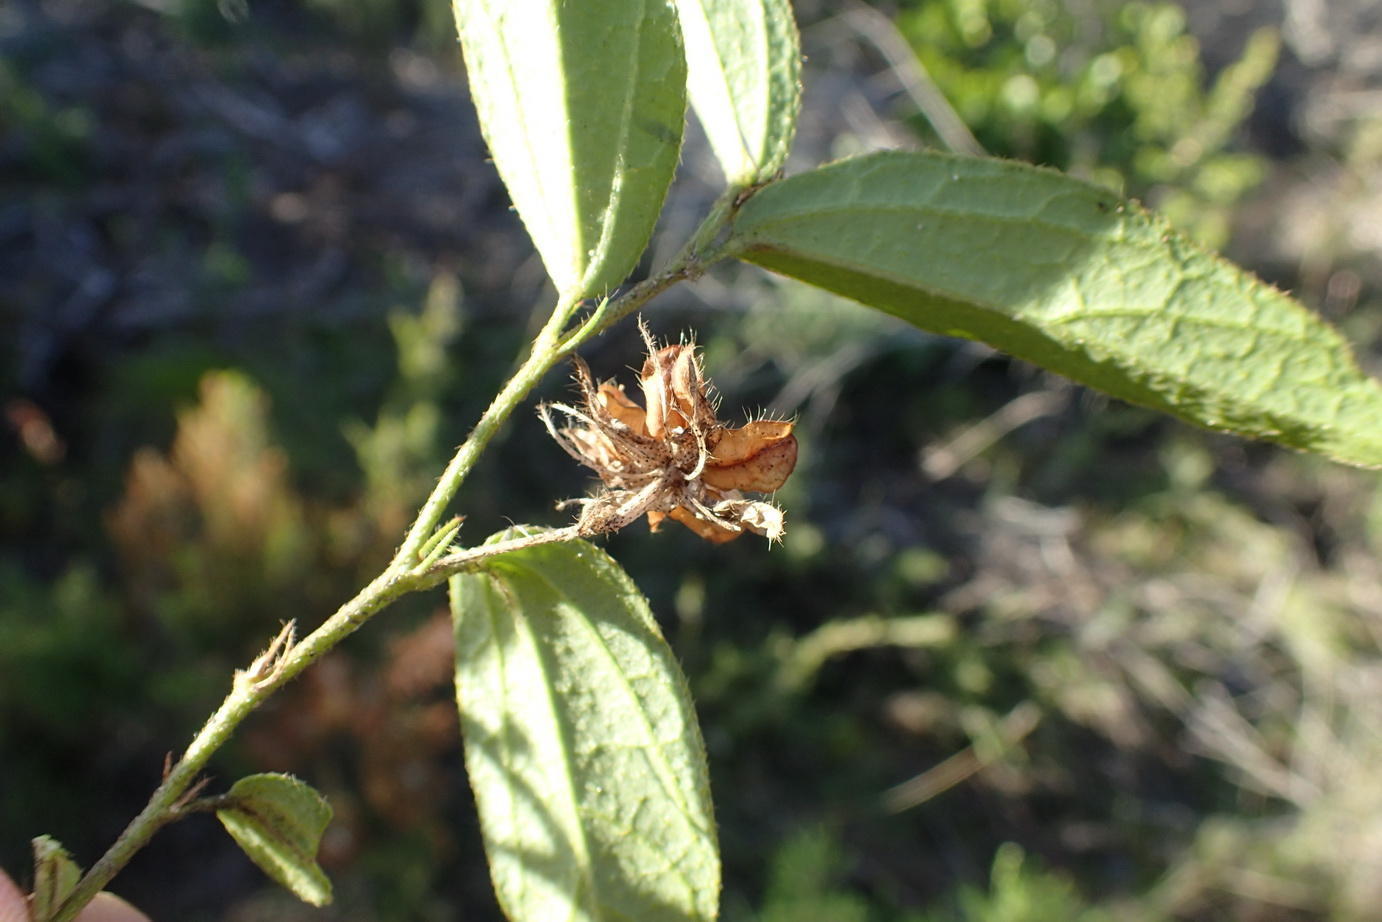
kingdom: Plantae
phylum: Tracheophyta
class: Magnoliopsida
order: Malvales
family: Malvaceae
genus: Hibiscus
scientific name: Hibiscus aethiopicus
